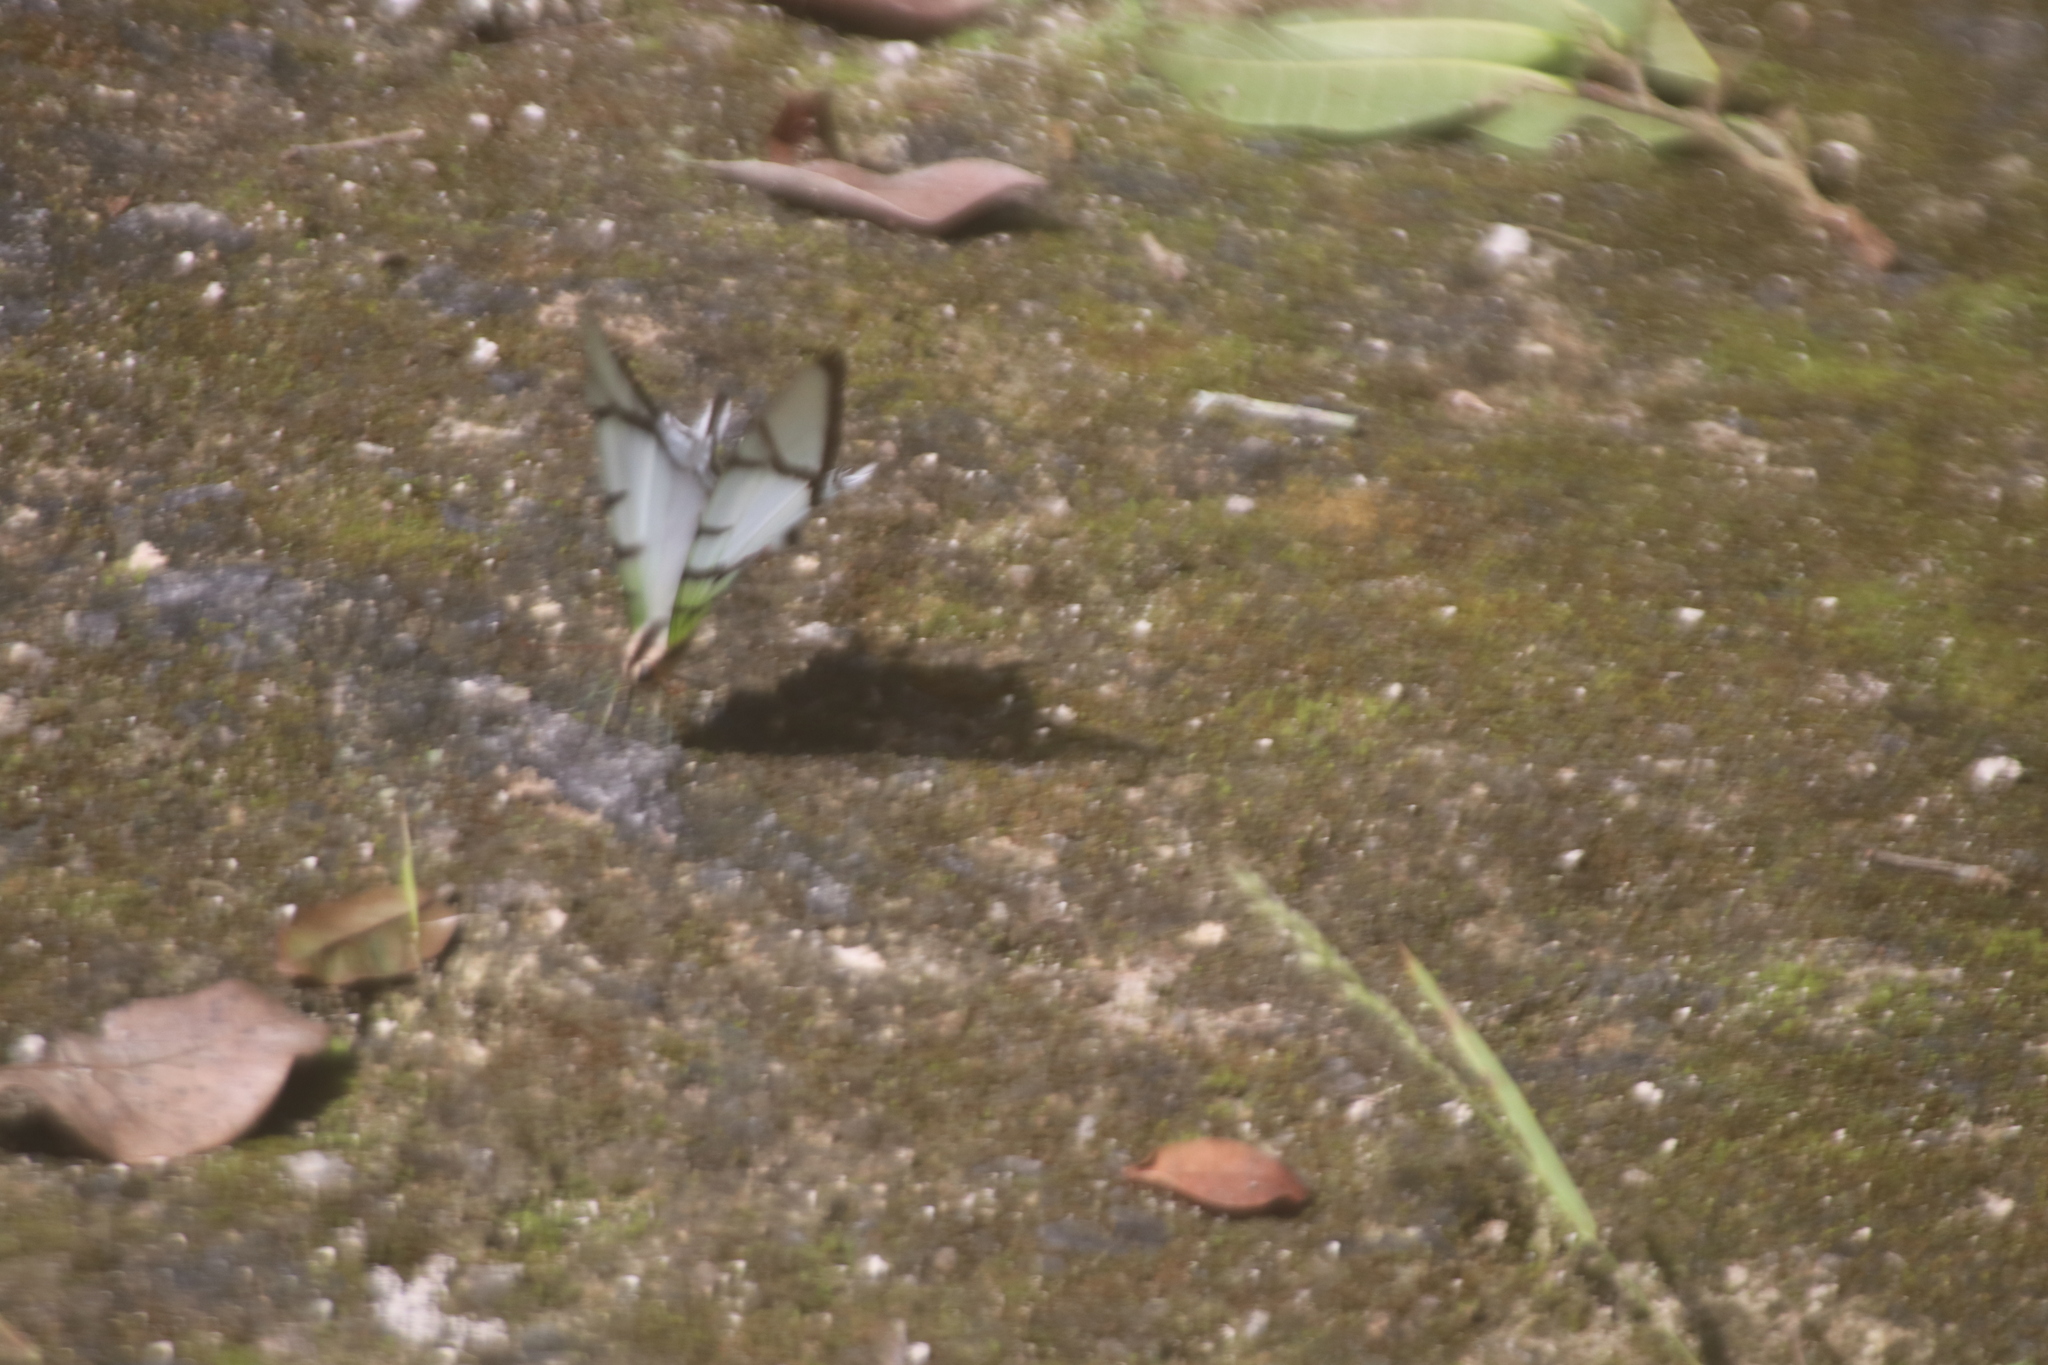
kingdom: Animalia
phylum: Arthropoda
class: Insecta
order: Lepidoptera
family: Papilionidae
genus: Protesilaus
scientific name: Protesilaus macrosilaus
